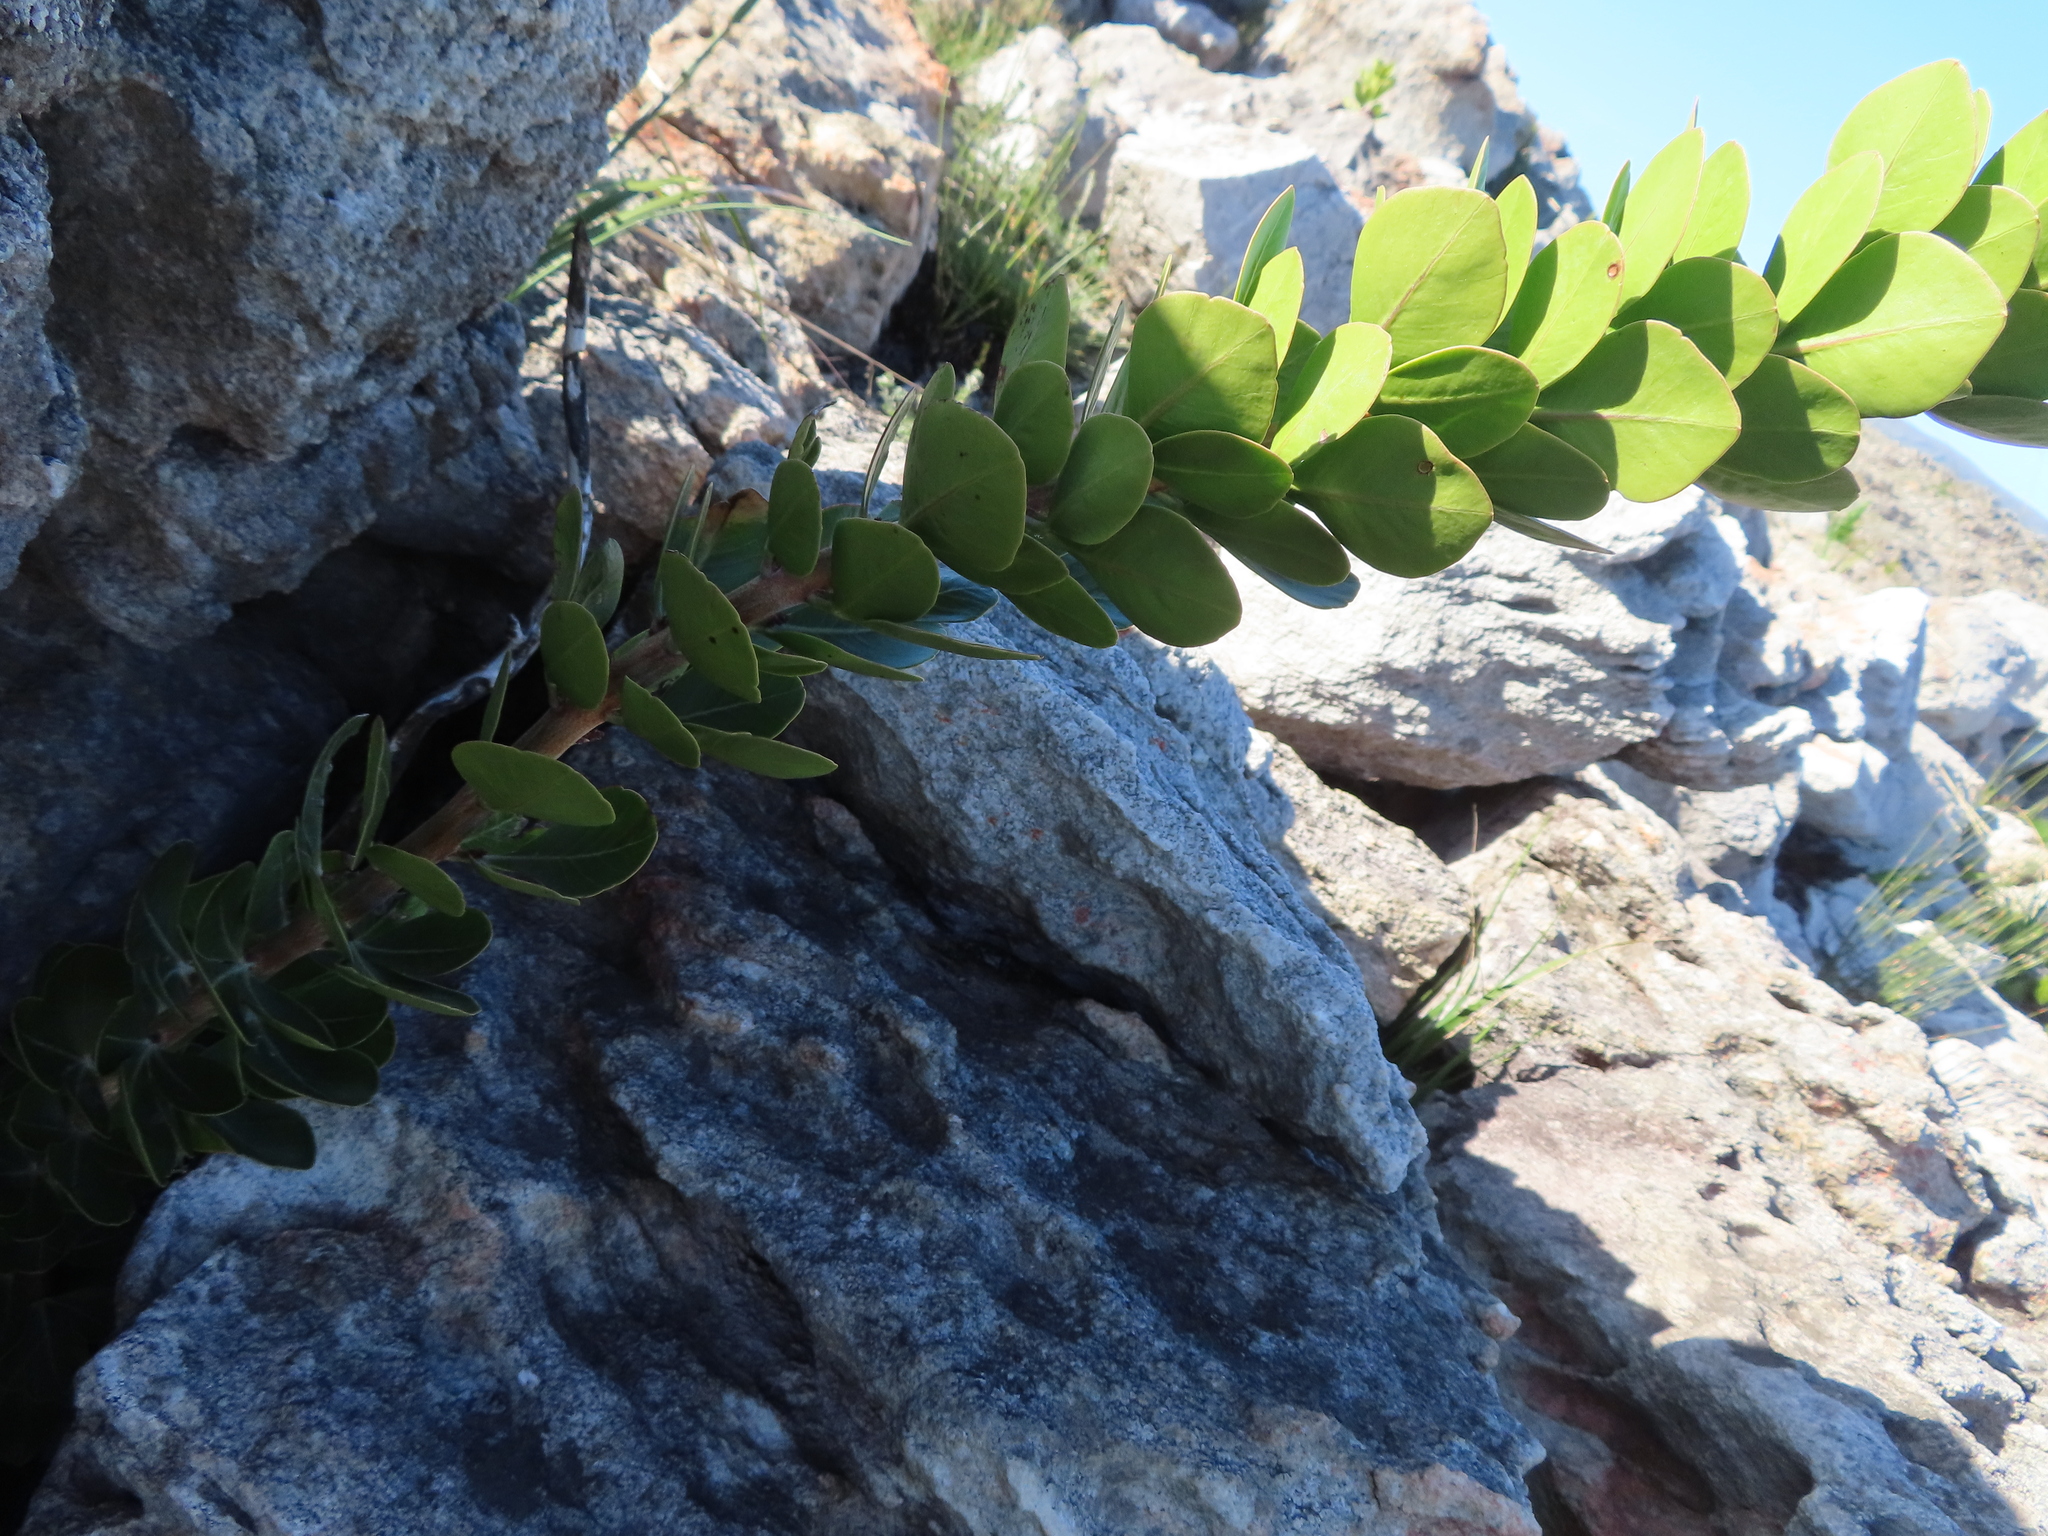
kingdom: Plantae
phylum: Tracheophyta
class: Magnoliopsida
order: Sapindales
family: Anacardiaceae
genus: Searsia
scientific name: Searsia scytophylla
